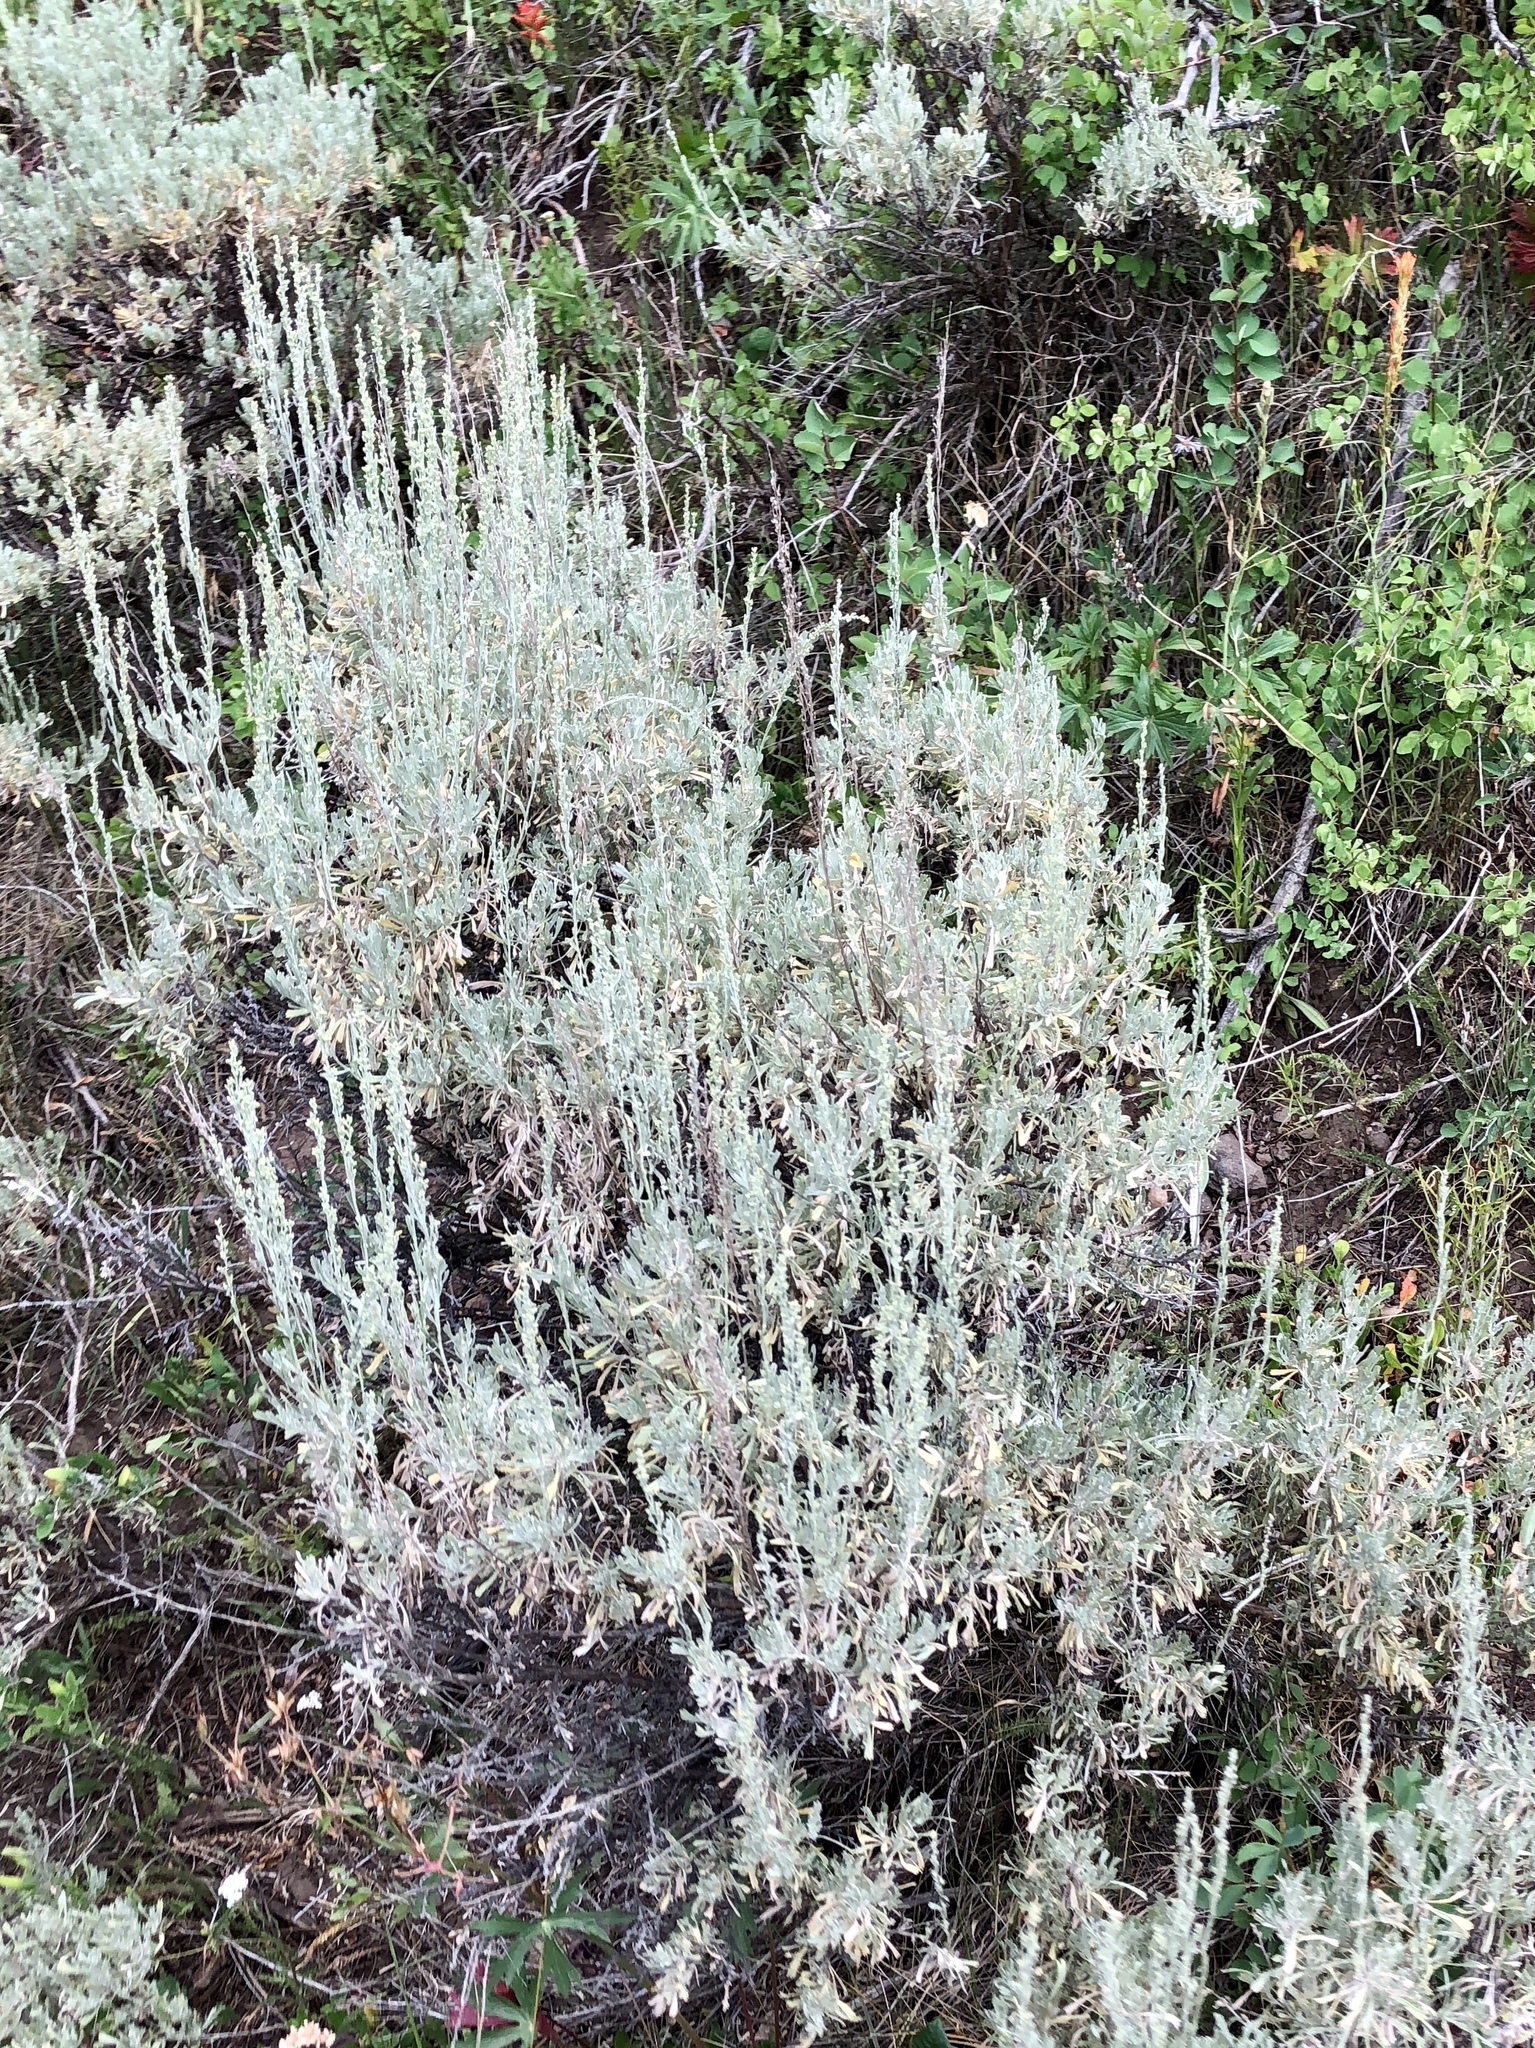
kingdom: Plantae
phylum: Tracheophyta
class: Magnoliopsida
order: Asterales
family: Asteraceae
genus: Artemisia
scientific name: Artemisia tridentata
